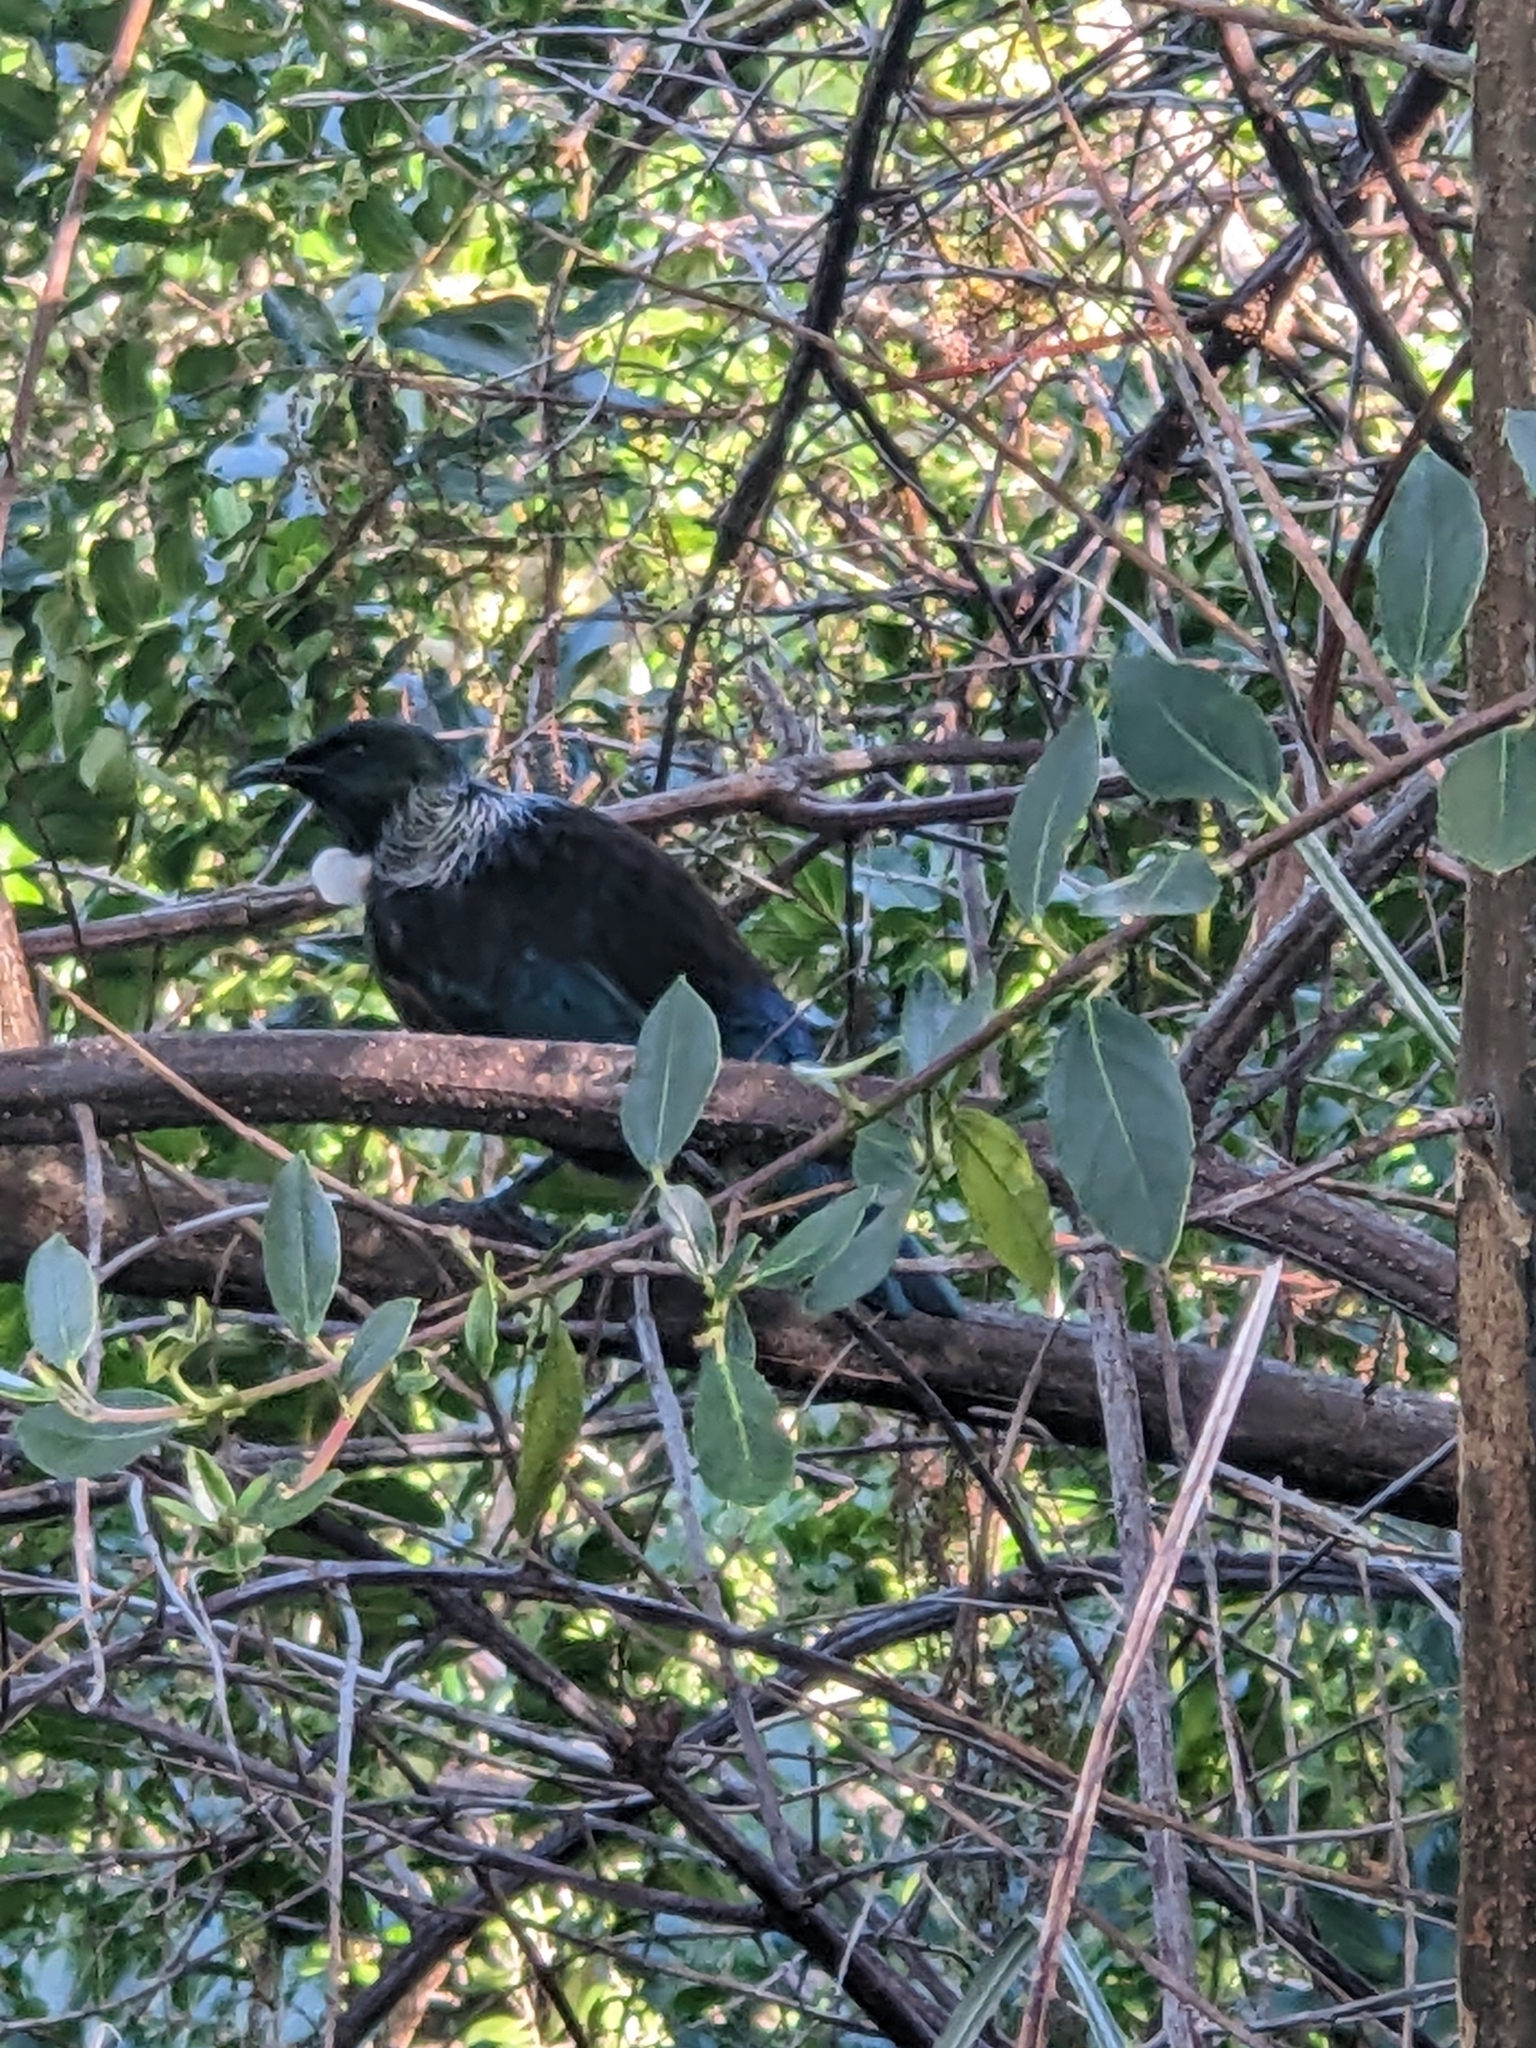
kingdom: Animalia
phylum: Chordata
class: Aves
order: Passeriformes
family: Meliphagidae
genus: Prosthemadera
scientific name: Prosthemadera novaeseelandiae
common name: Tui
